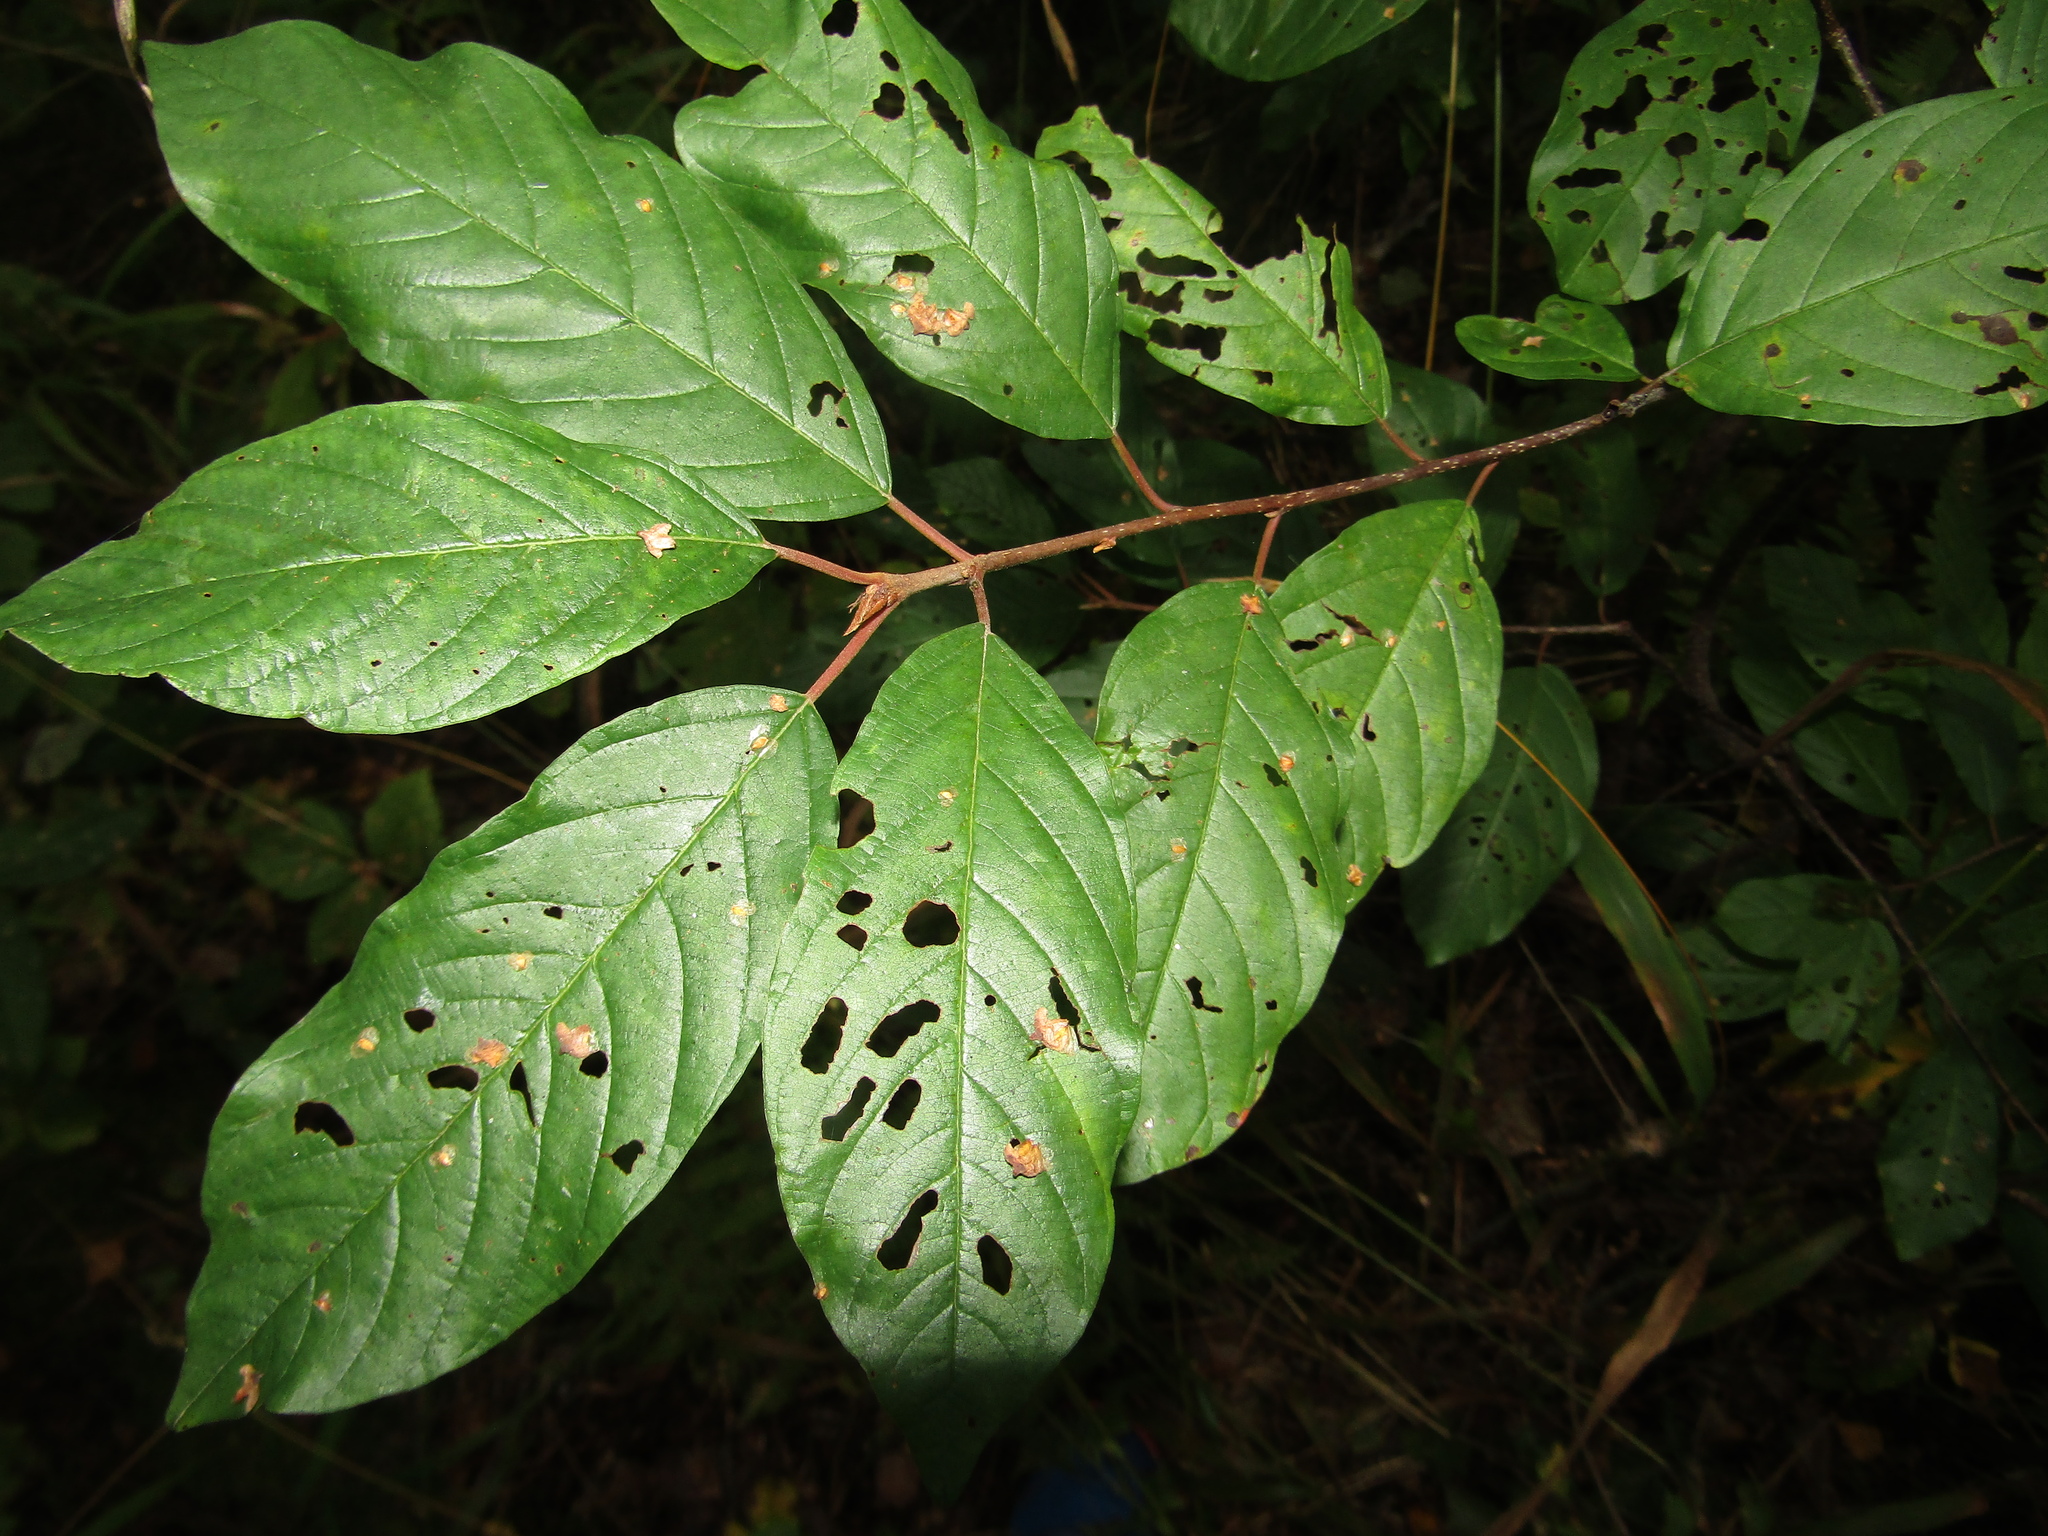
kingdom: Plantae
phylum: Tracheophyta
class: Magnoliopsida
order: Rosales
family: Rhamnaceae
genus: Frangula
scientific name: Frangula alnus
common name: Alder buckthorn
